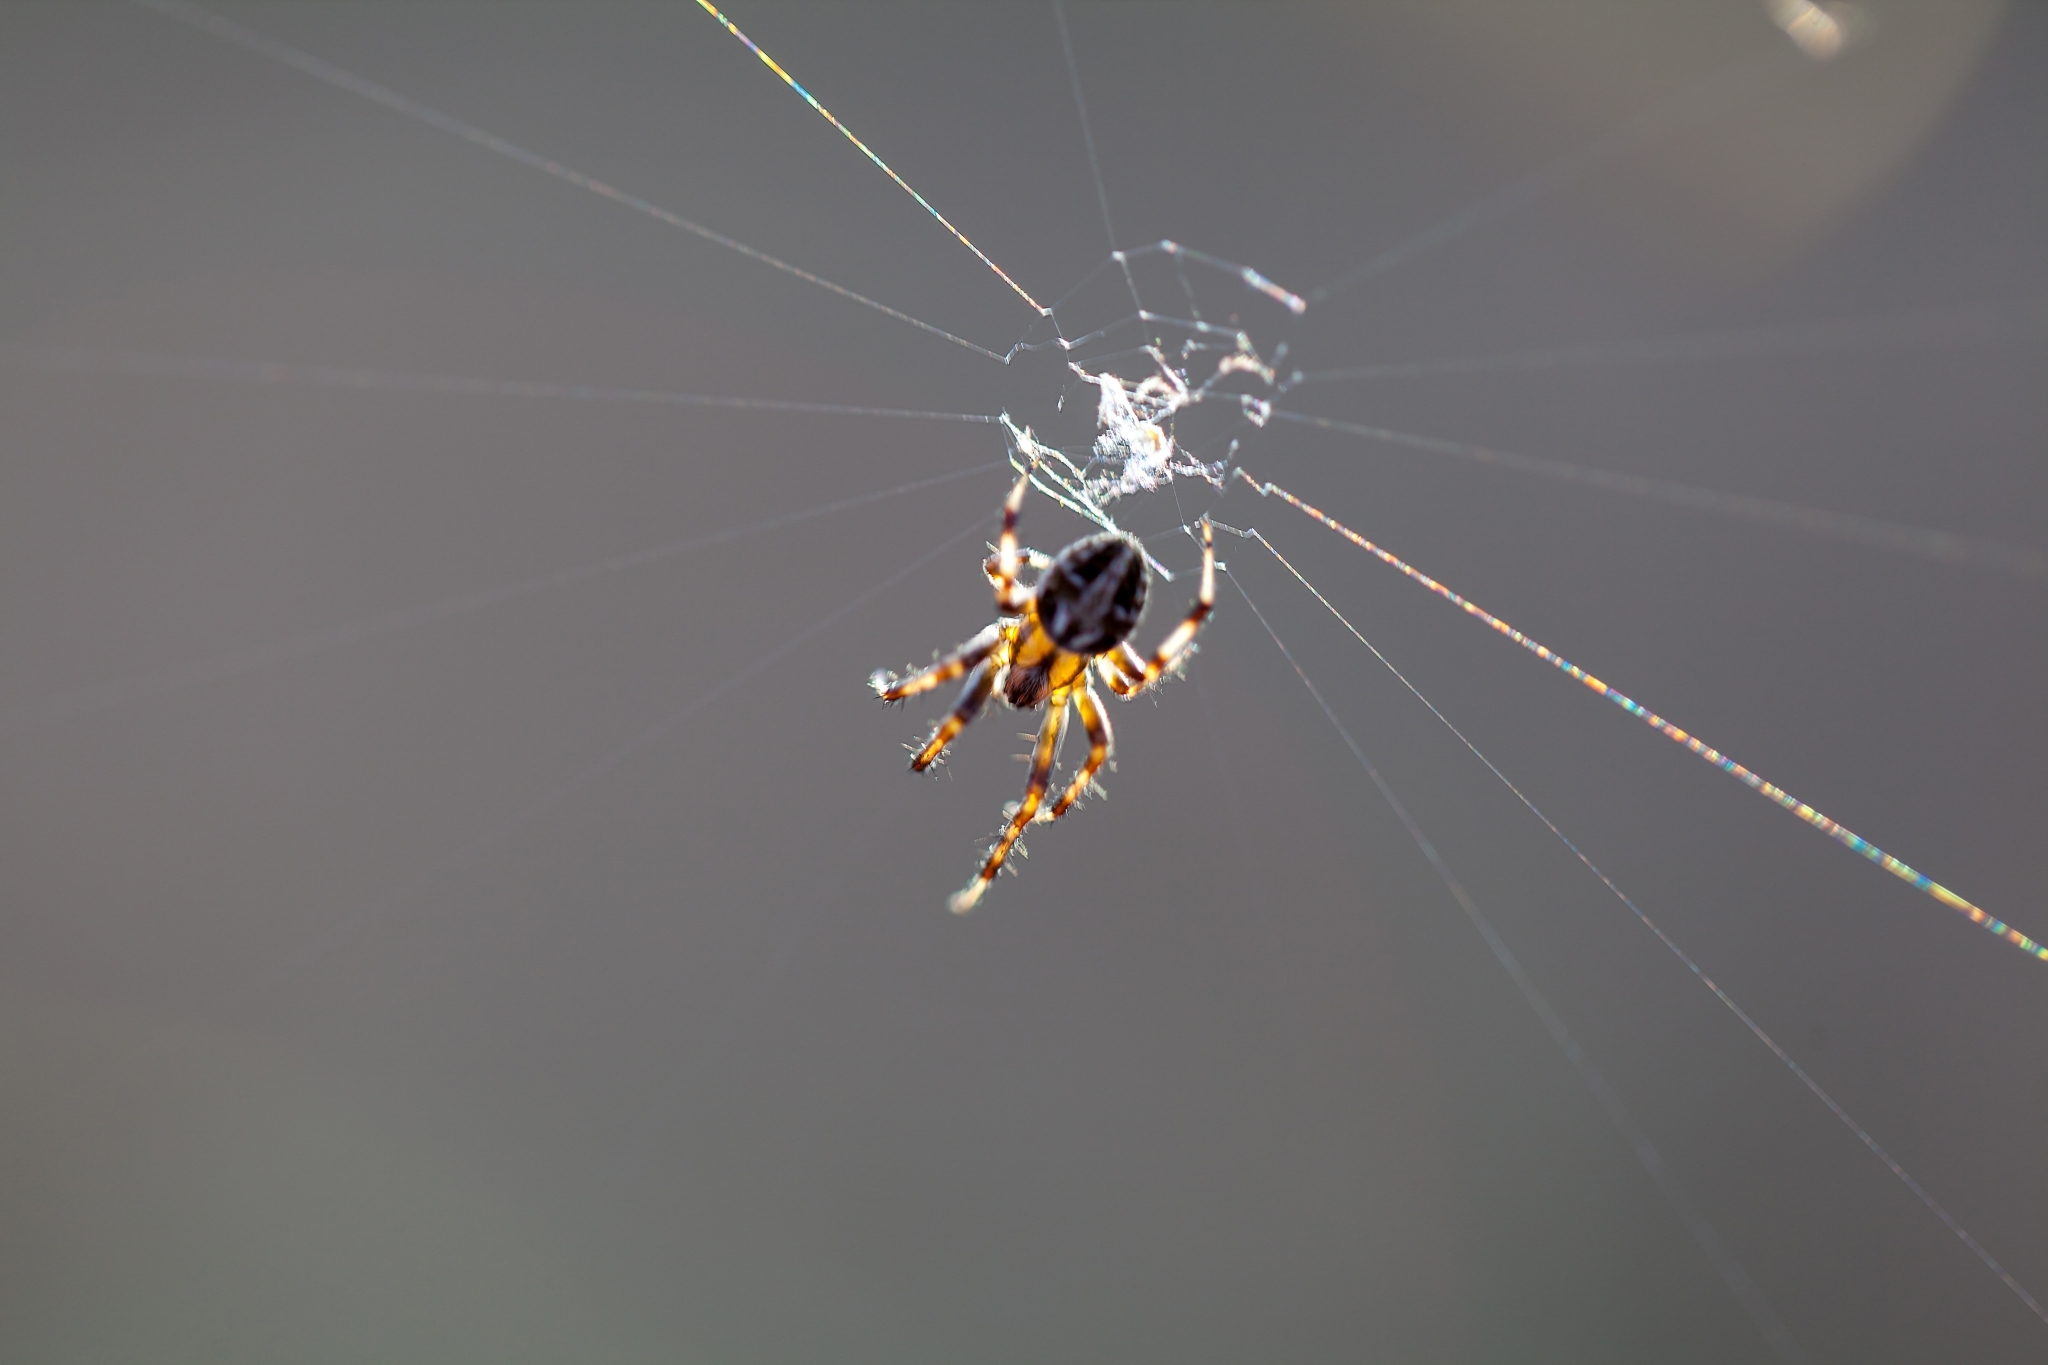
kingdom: Animalia
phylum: Arthropoda
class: Arachnida
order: Araneae
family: Araneidae
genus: Neoscona
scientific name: Neoscona arabesca
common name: Orb weavers
